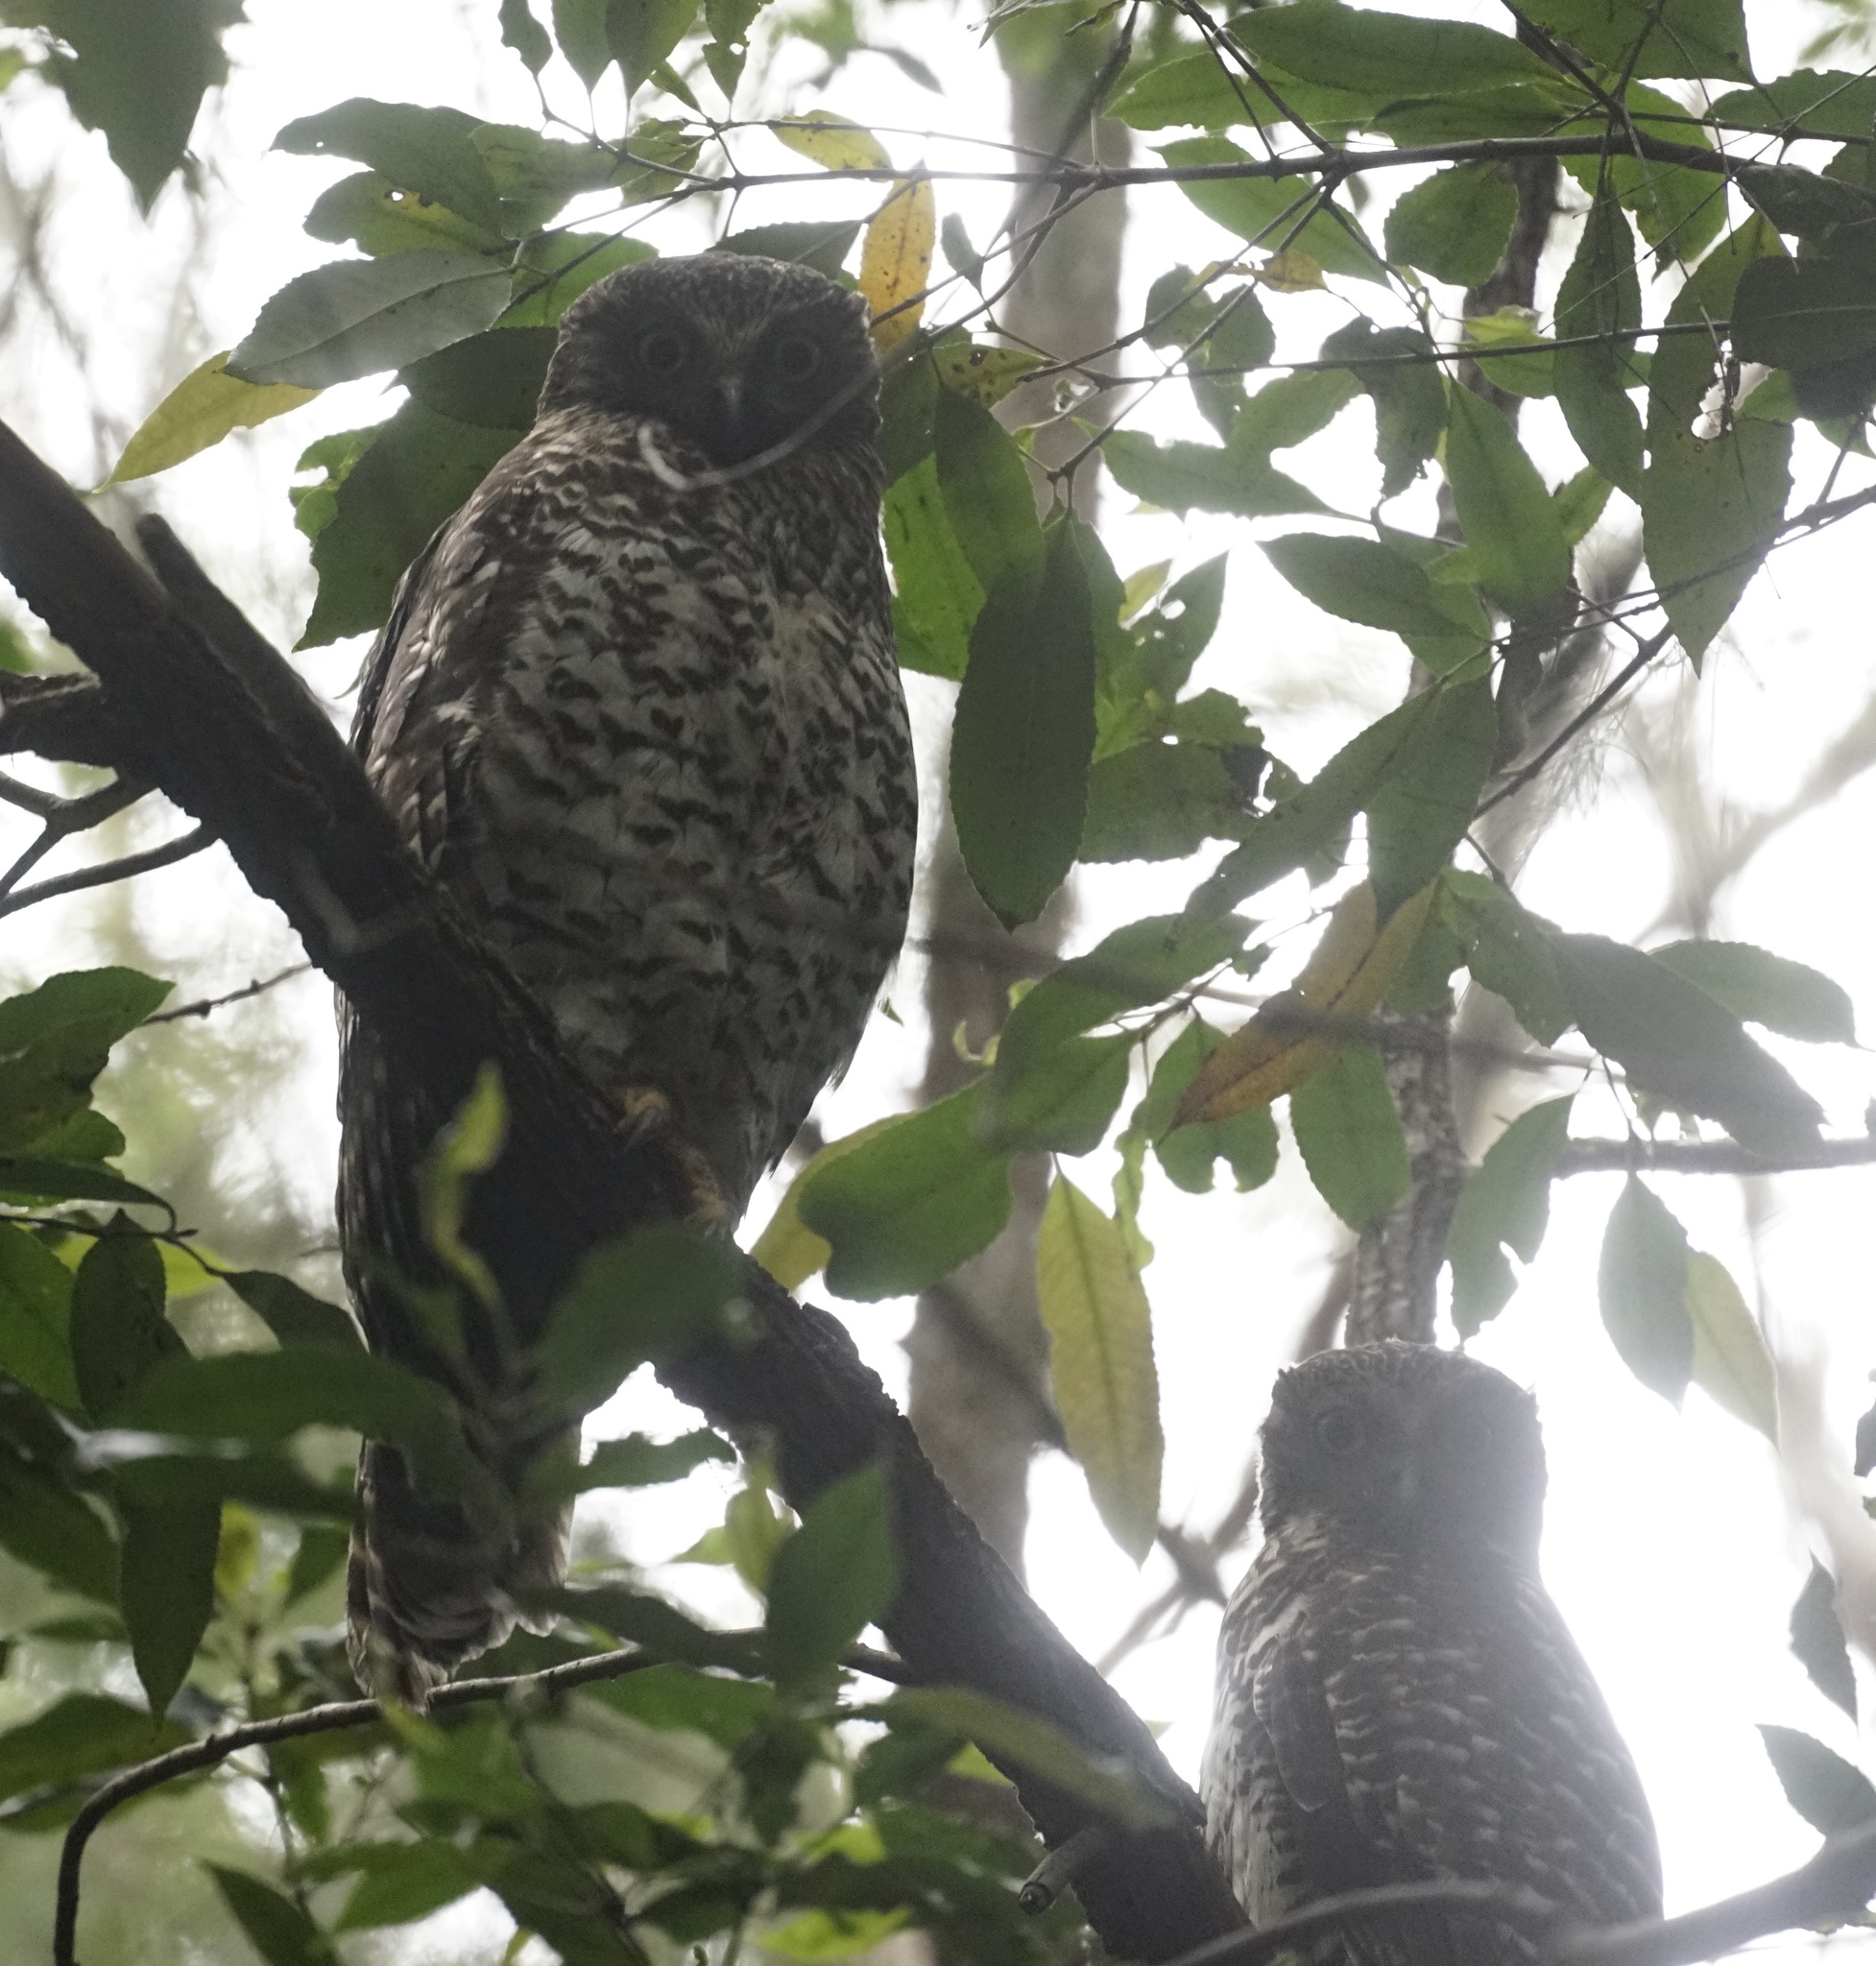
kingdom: Animalia
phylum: Chordata
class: Aves
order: Strigiformes
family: Strigidae
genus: Ninox
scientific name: Ninox strenua
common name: Powerful owl
